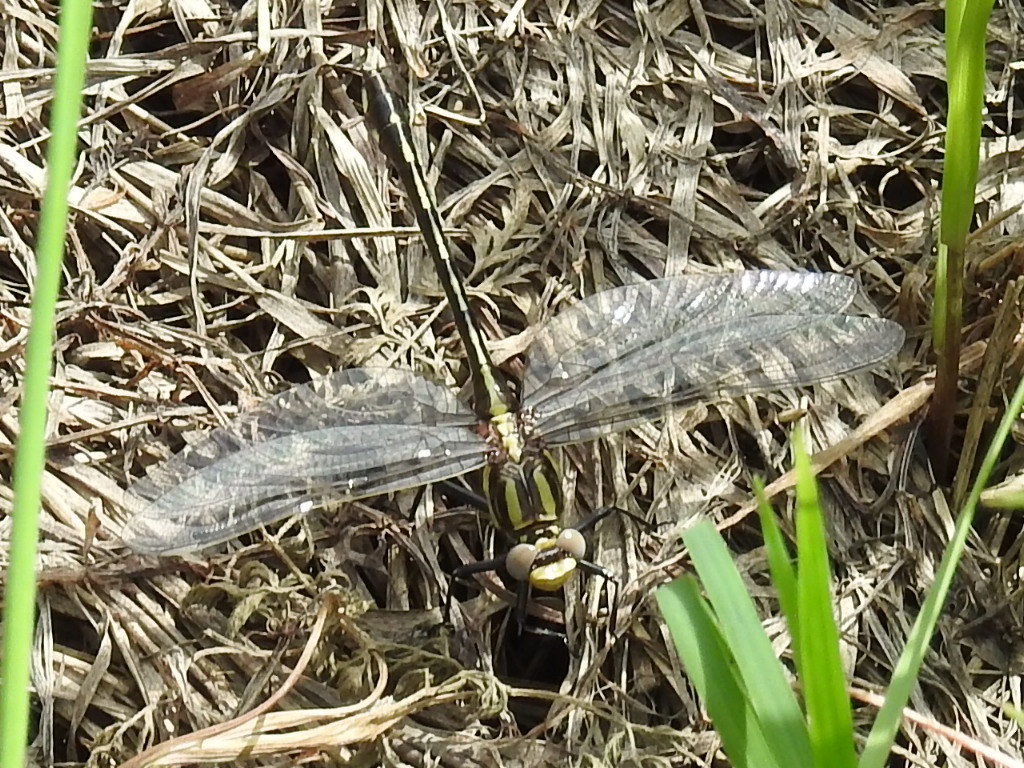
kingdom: Animalia
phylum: Arthropoda
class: Insecta
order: Odonata
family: Gomphidae
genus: Gomphurus
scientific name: Gomphurus externus
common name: Plains clubtail
